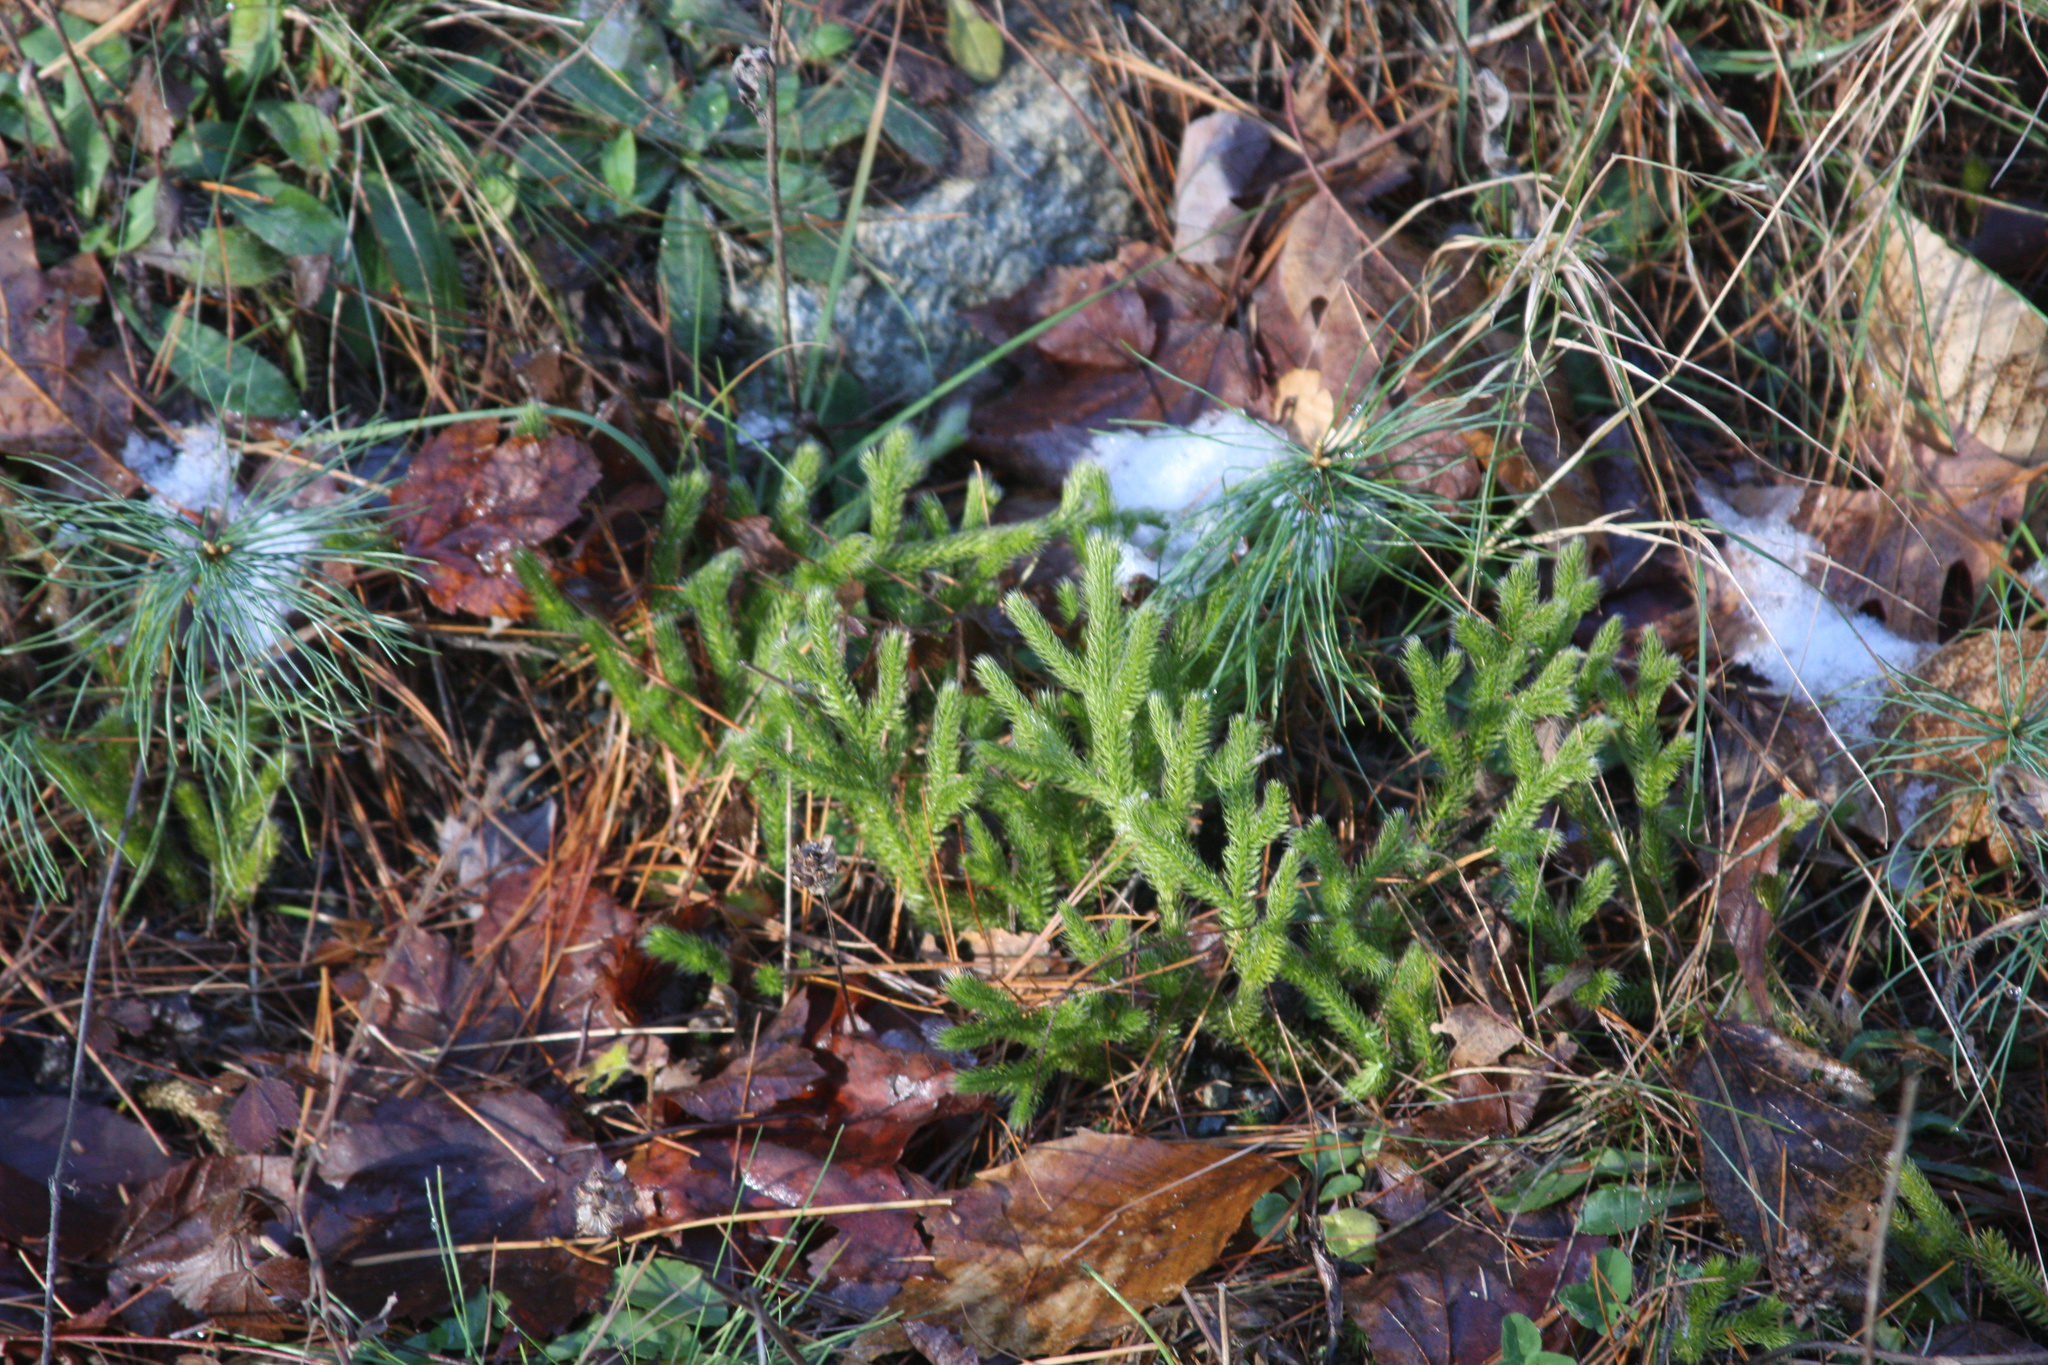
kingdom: Plantae
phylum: Tracheophyta
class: Lycopodiopsida
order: Lycopodiales
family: Lycopodiaceae
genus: Lycopodium
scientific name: Lycopodium clavatum
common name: Stag's-horn clubmoss
